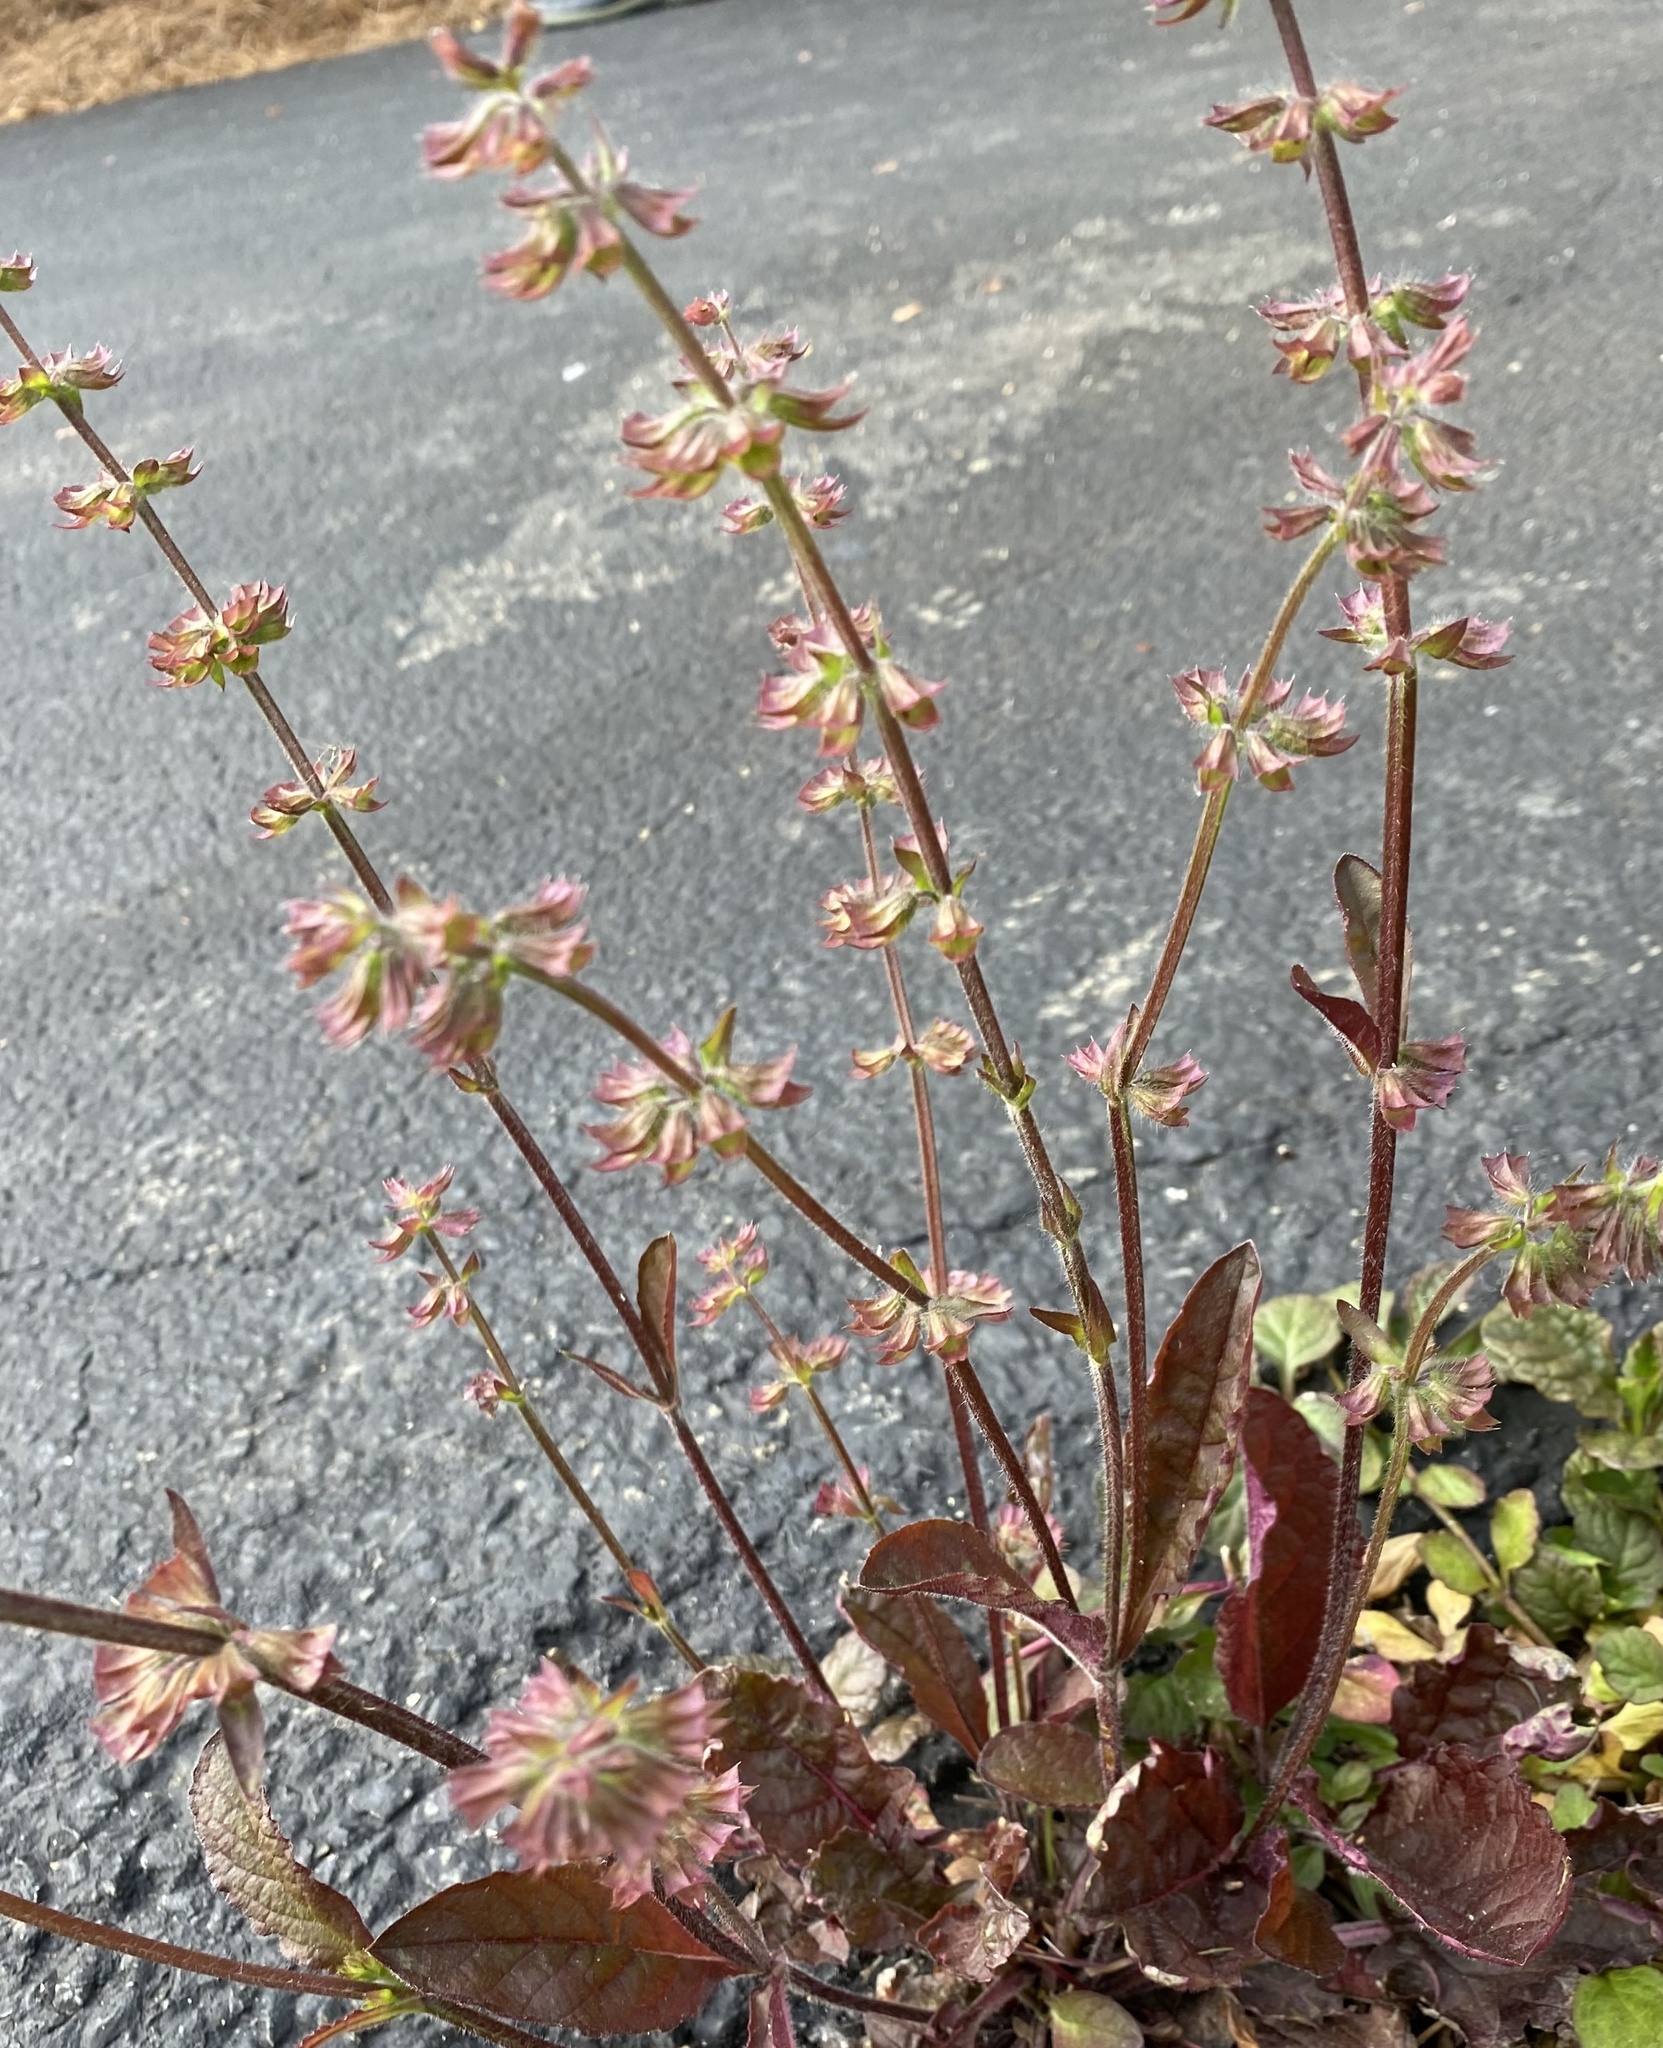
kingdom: Plantae
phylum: Tracheophyta
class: Magnoliopsida
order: Lamiales
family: Lamiaceae
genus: Salvia
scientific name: Salvia lyrata
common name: Cancerweed
